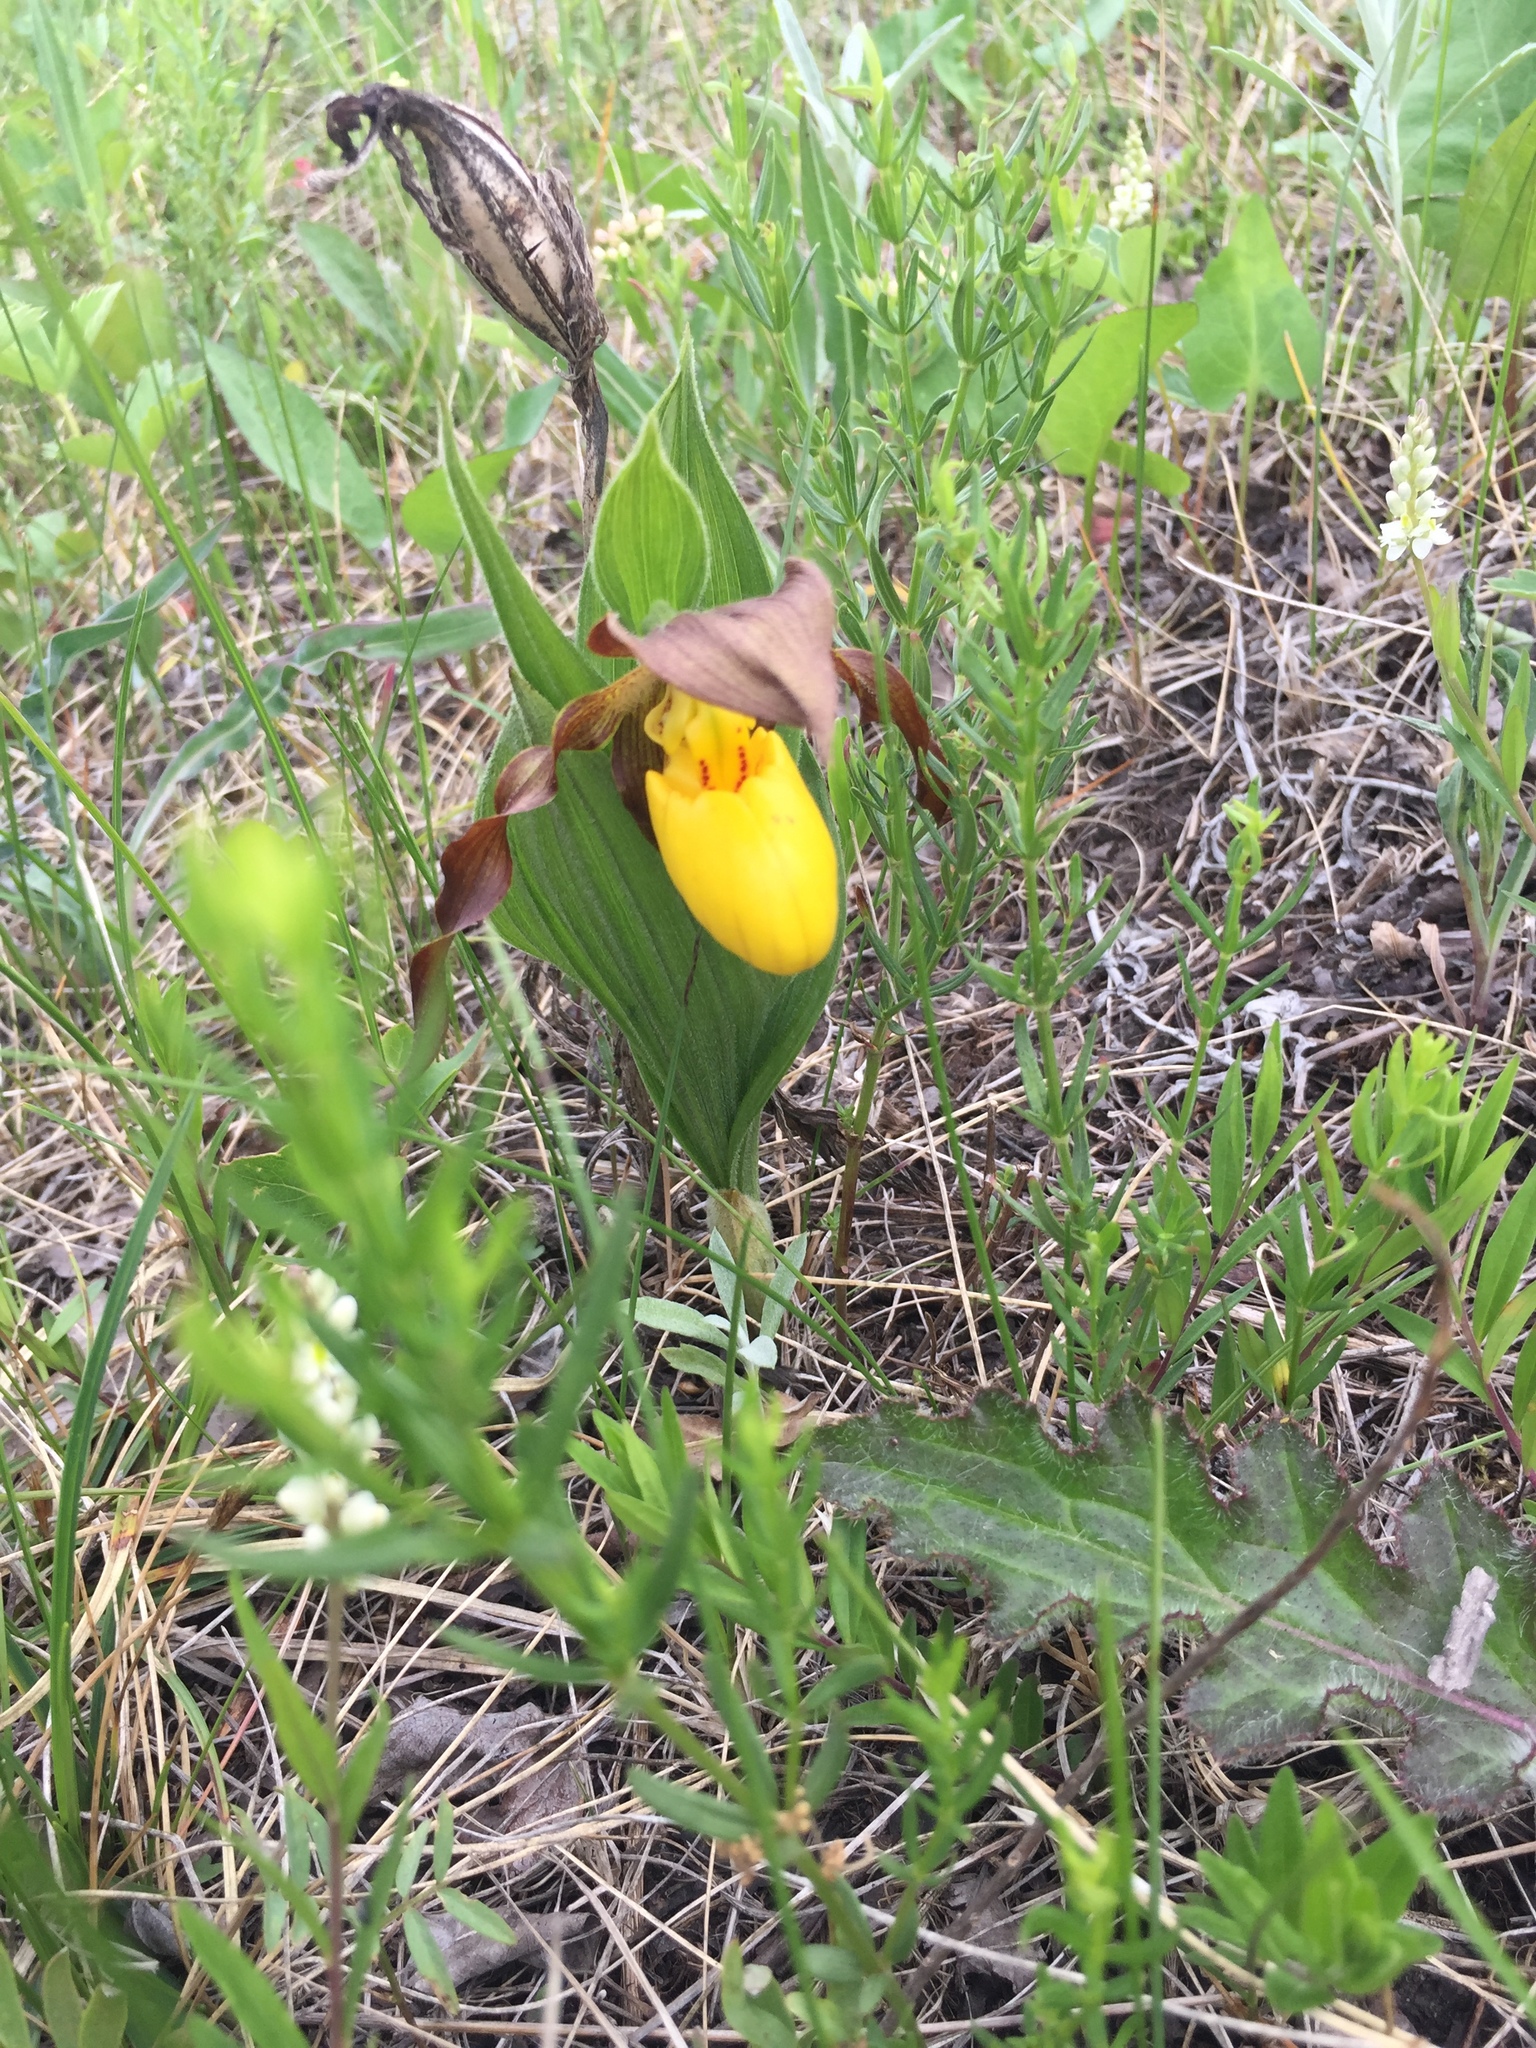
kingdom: Plantae
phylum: Tracheophyta
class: Liliopsida
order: Asparagales
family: Orchidaceae
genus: Cypripedium
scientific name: Cypripedium parviflorum
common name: American yellow lady's-slipper
